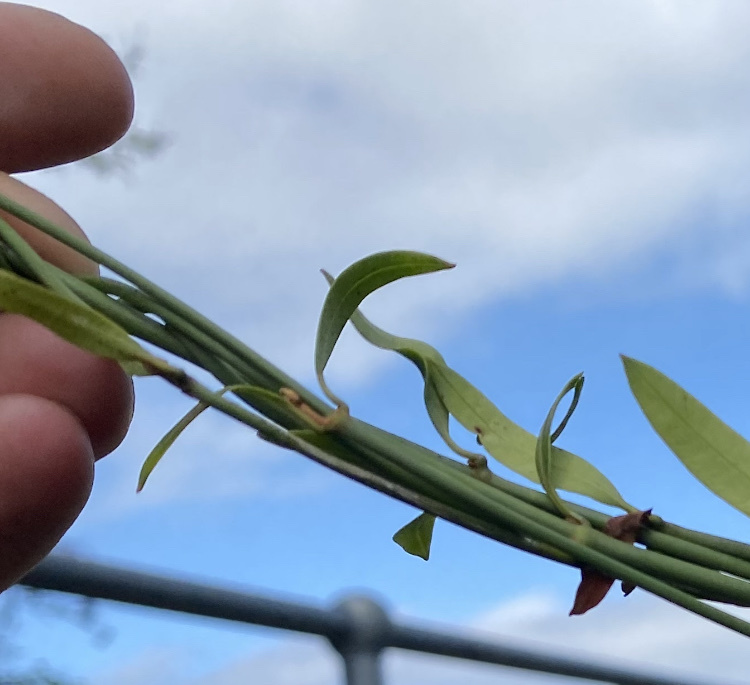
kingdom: Plantae
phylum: Tracheophyta
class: Magnoliopsida
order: Gentianales
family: Apocynaceae
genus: Secamone
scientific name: Secamone alpini
